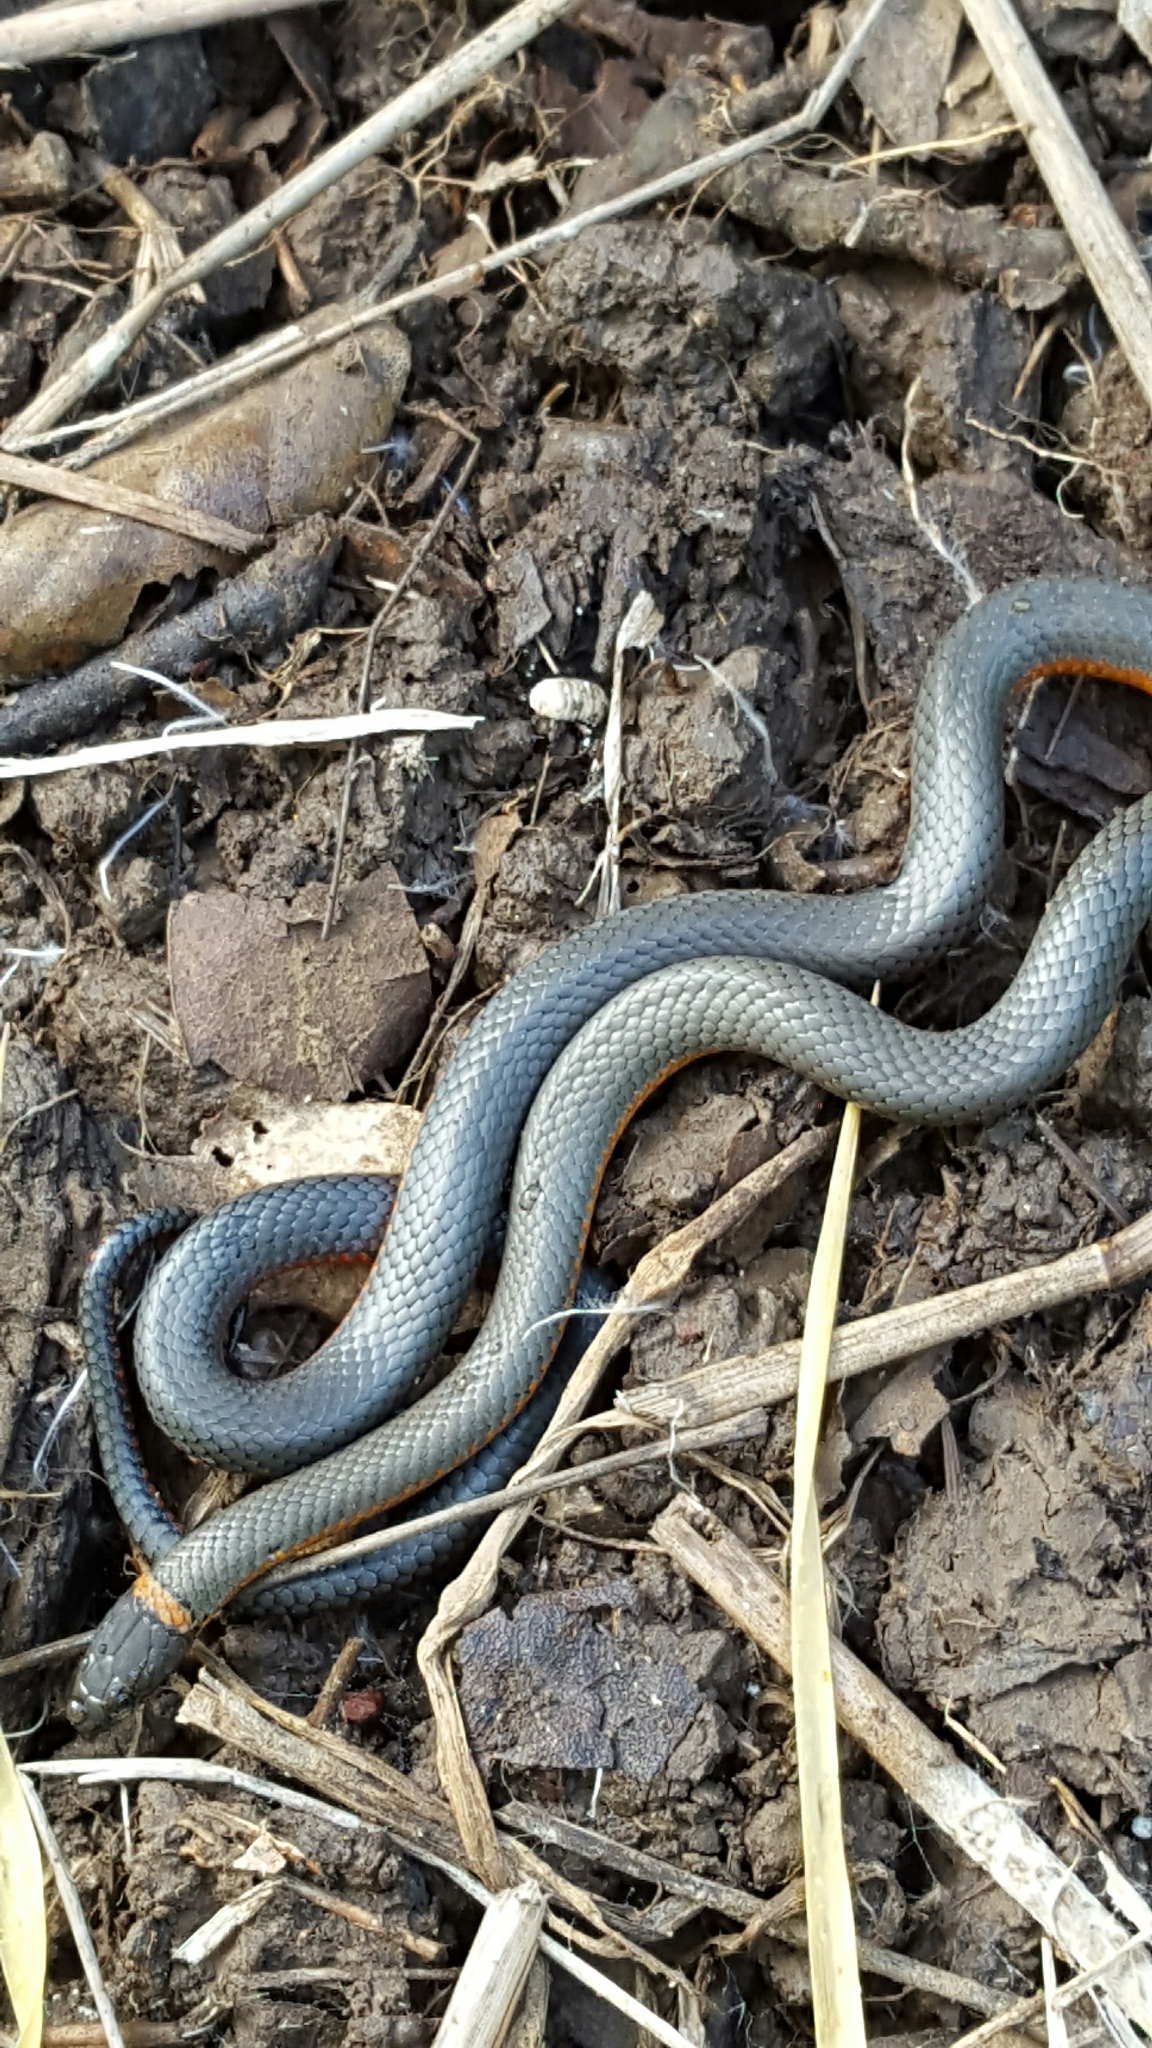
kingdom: Animalia
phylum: Chordata
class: Squamata
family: Colubridae
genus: Diadophis
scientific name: Diadophis punctatus
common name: Ringneck snake
